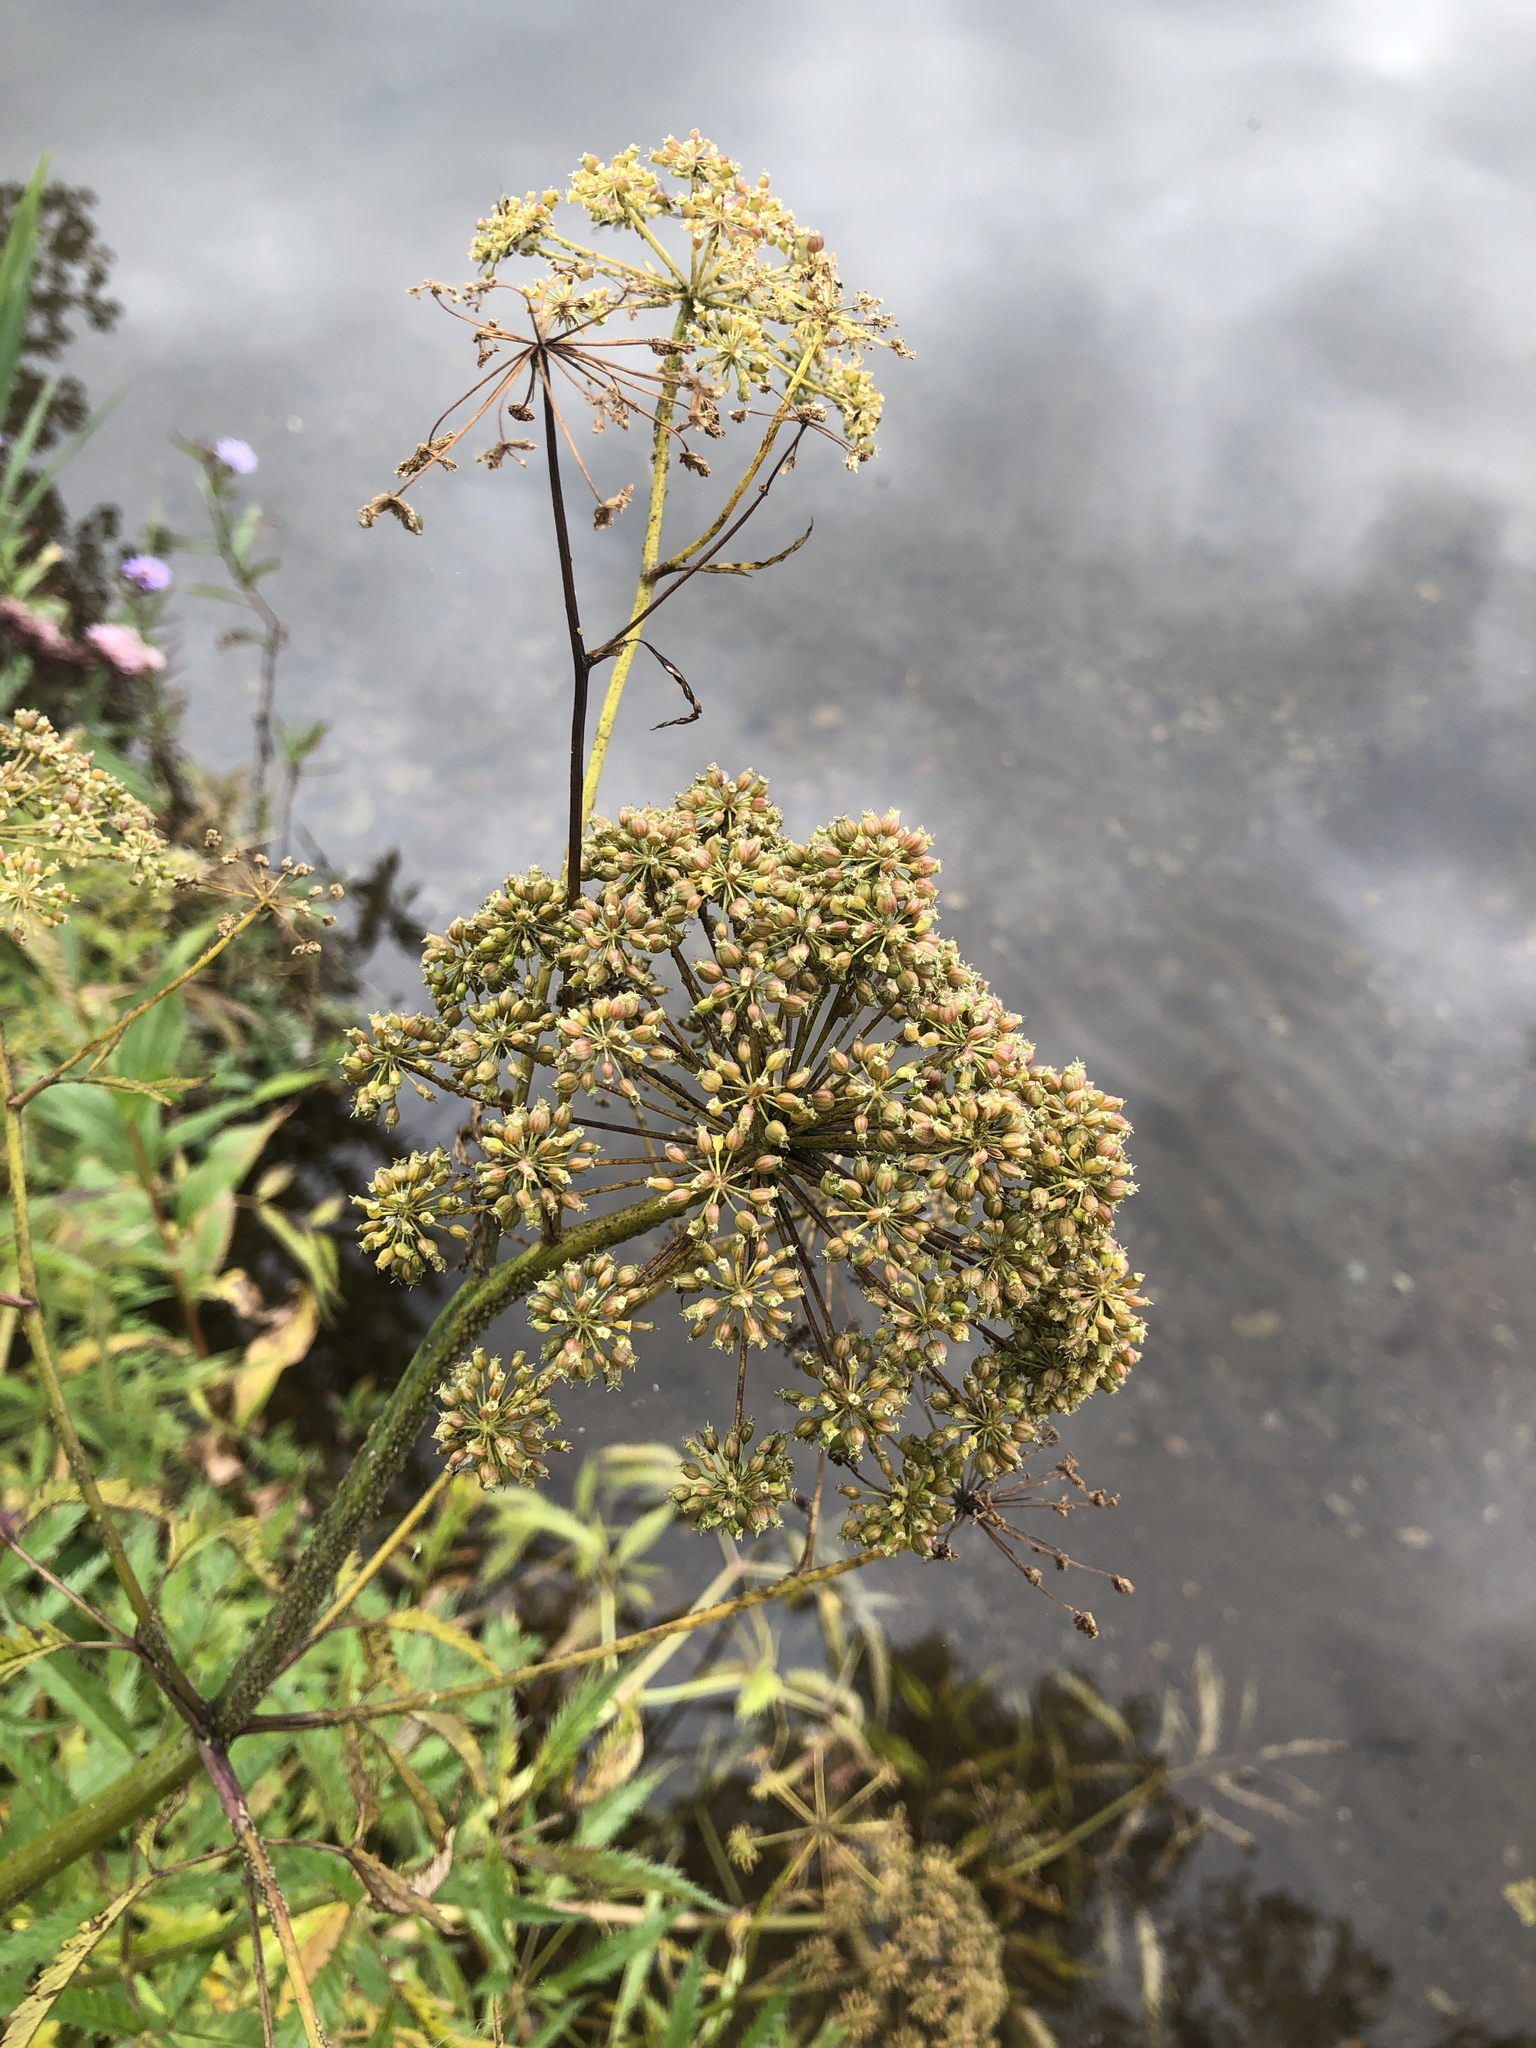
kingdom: Plantae
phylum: Tracheophyta
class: Magnoliopsida
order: Apiales
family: Apiaceae
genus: Cicuta
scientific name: Cicuta maculata
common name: Spotted cowbane
